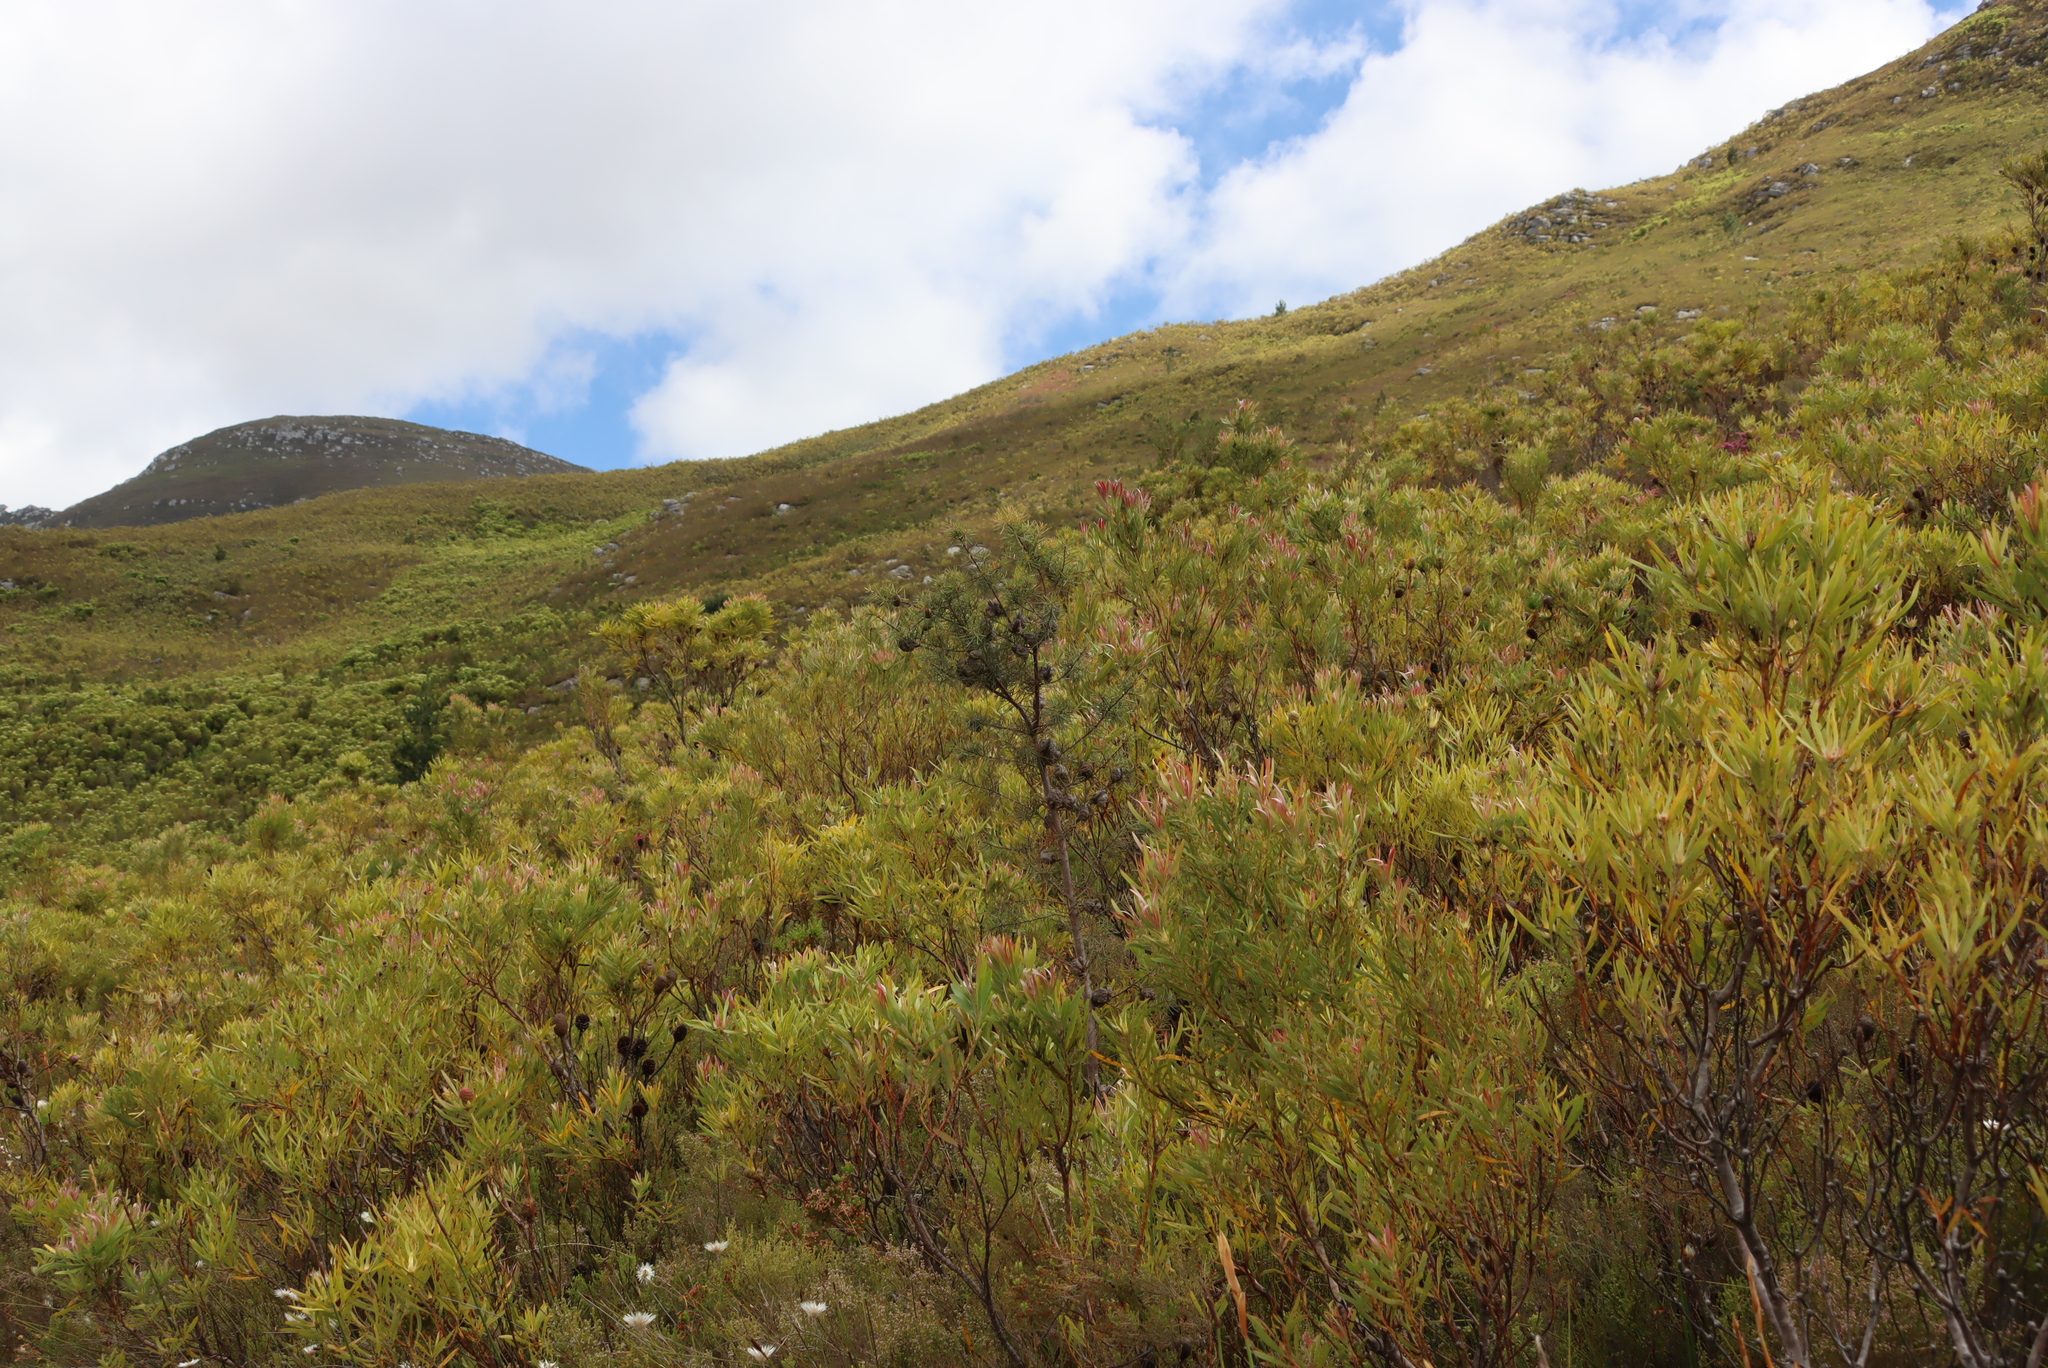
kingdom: Plantae
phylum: Tracheophyta
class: Magnoliopsida
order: Proteales
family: Proteaceae
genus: Hakea
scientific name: Hakea sericea
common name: Needle bush
